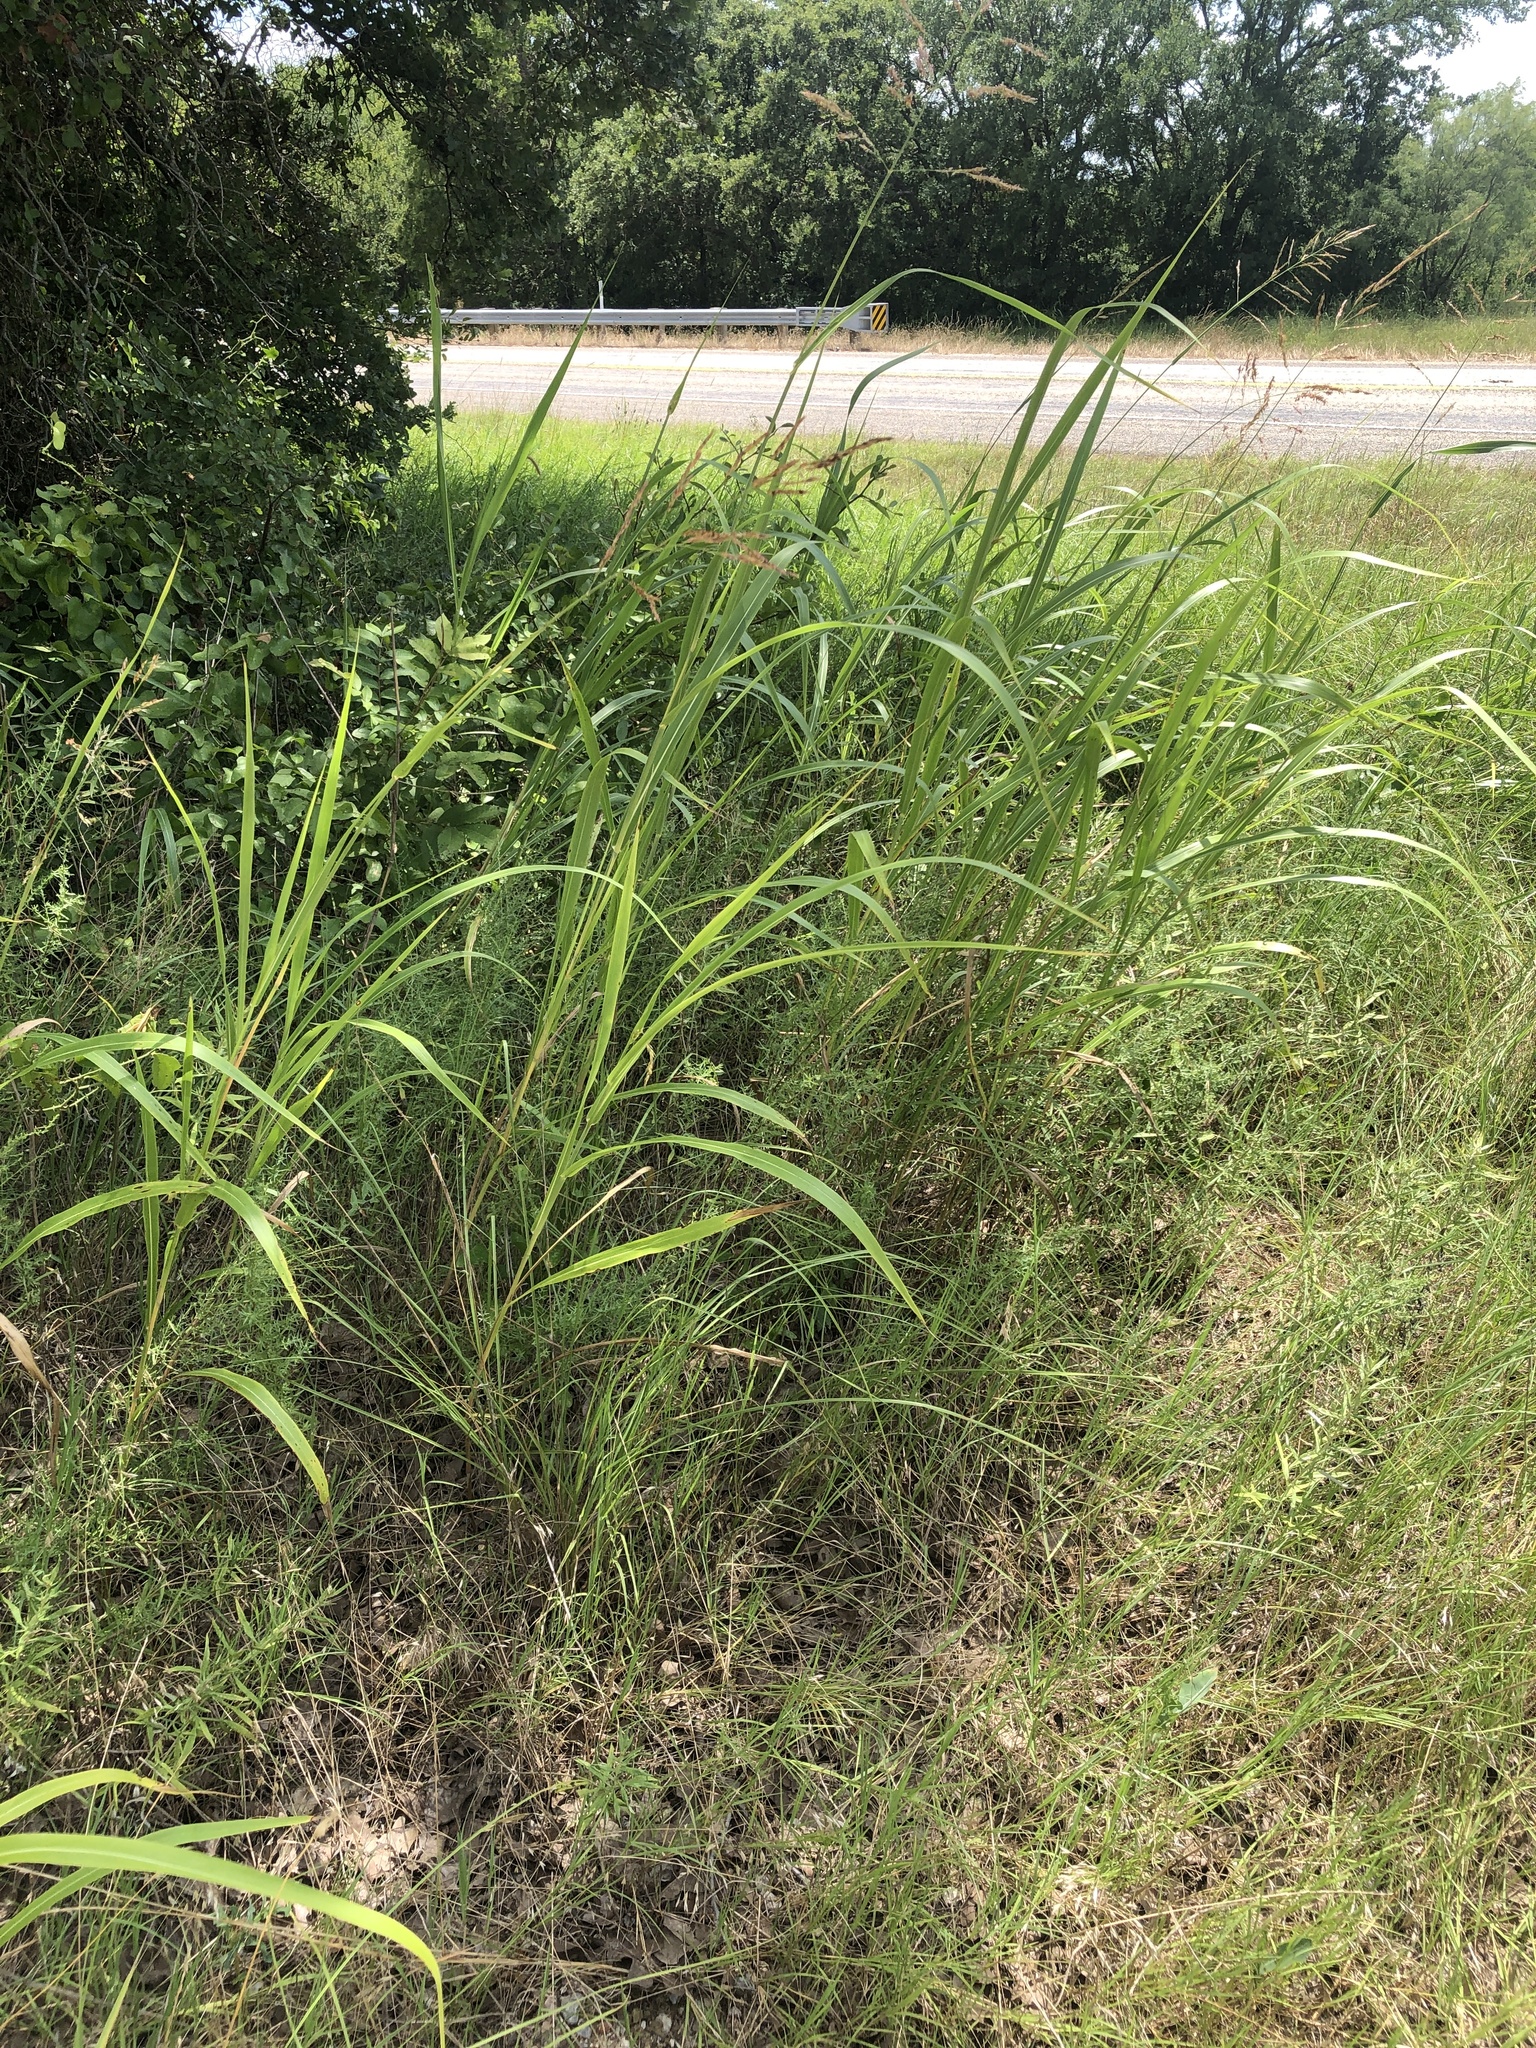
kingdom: Plantae
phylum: Tracheophyta
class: Liliopsida
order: Poales
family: Poaceae
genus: Sorghum
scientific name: Sorghum halepense
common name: Johnson-grass
